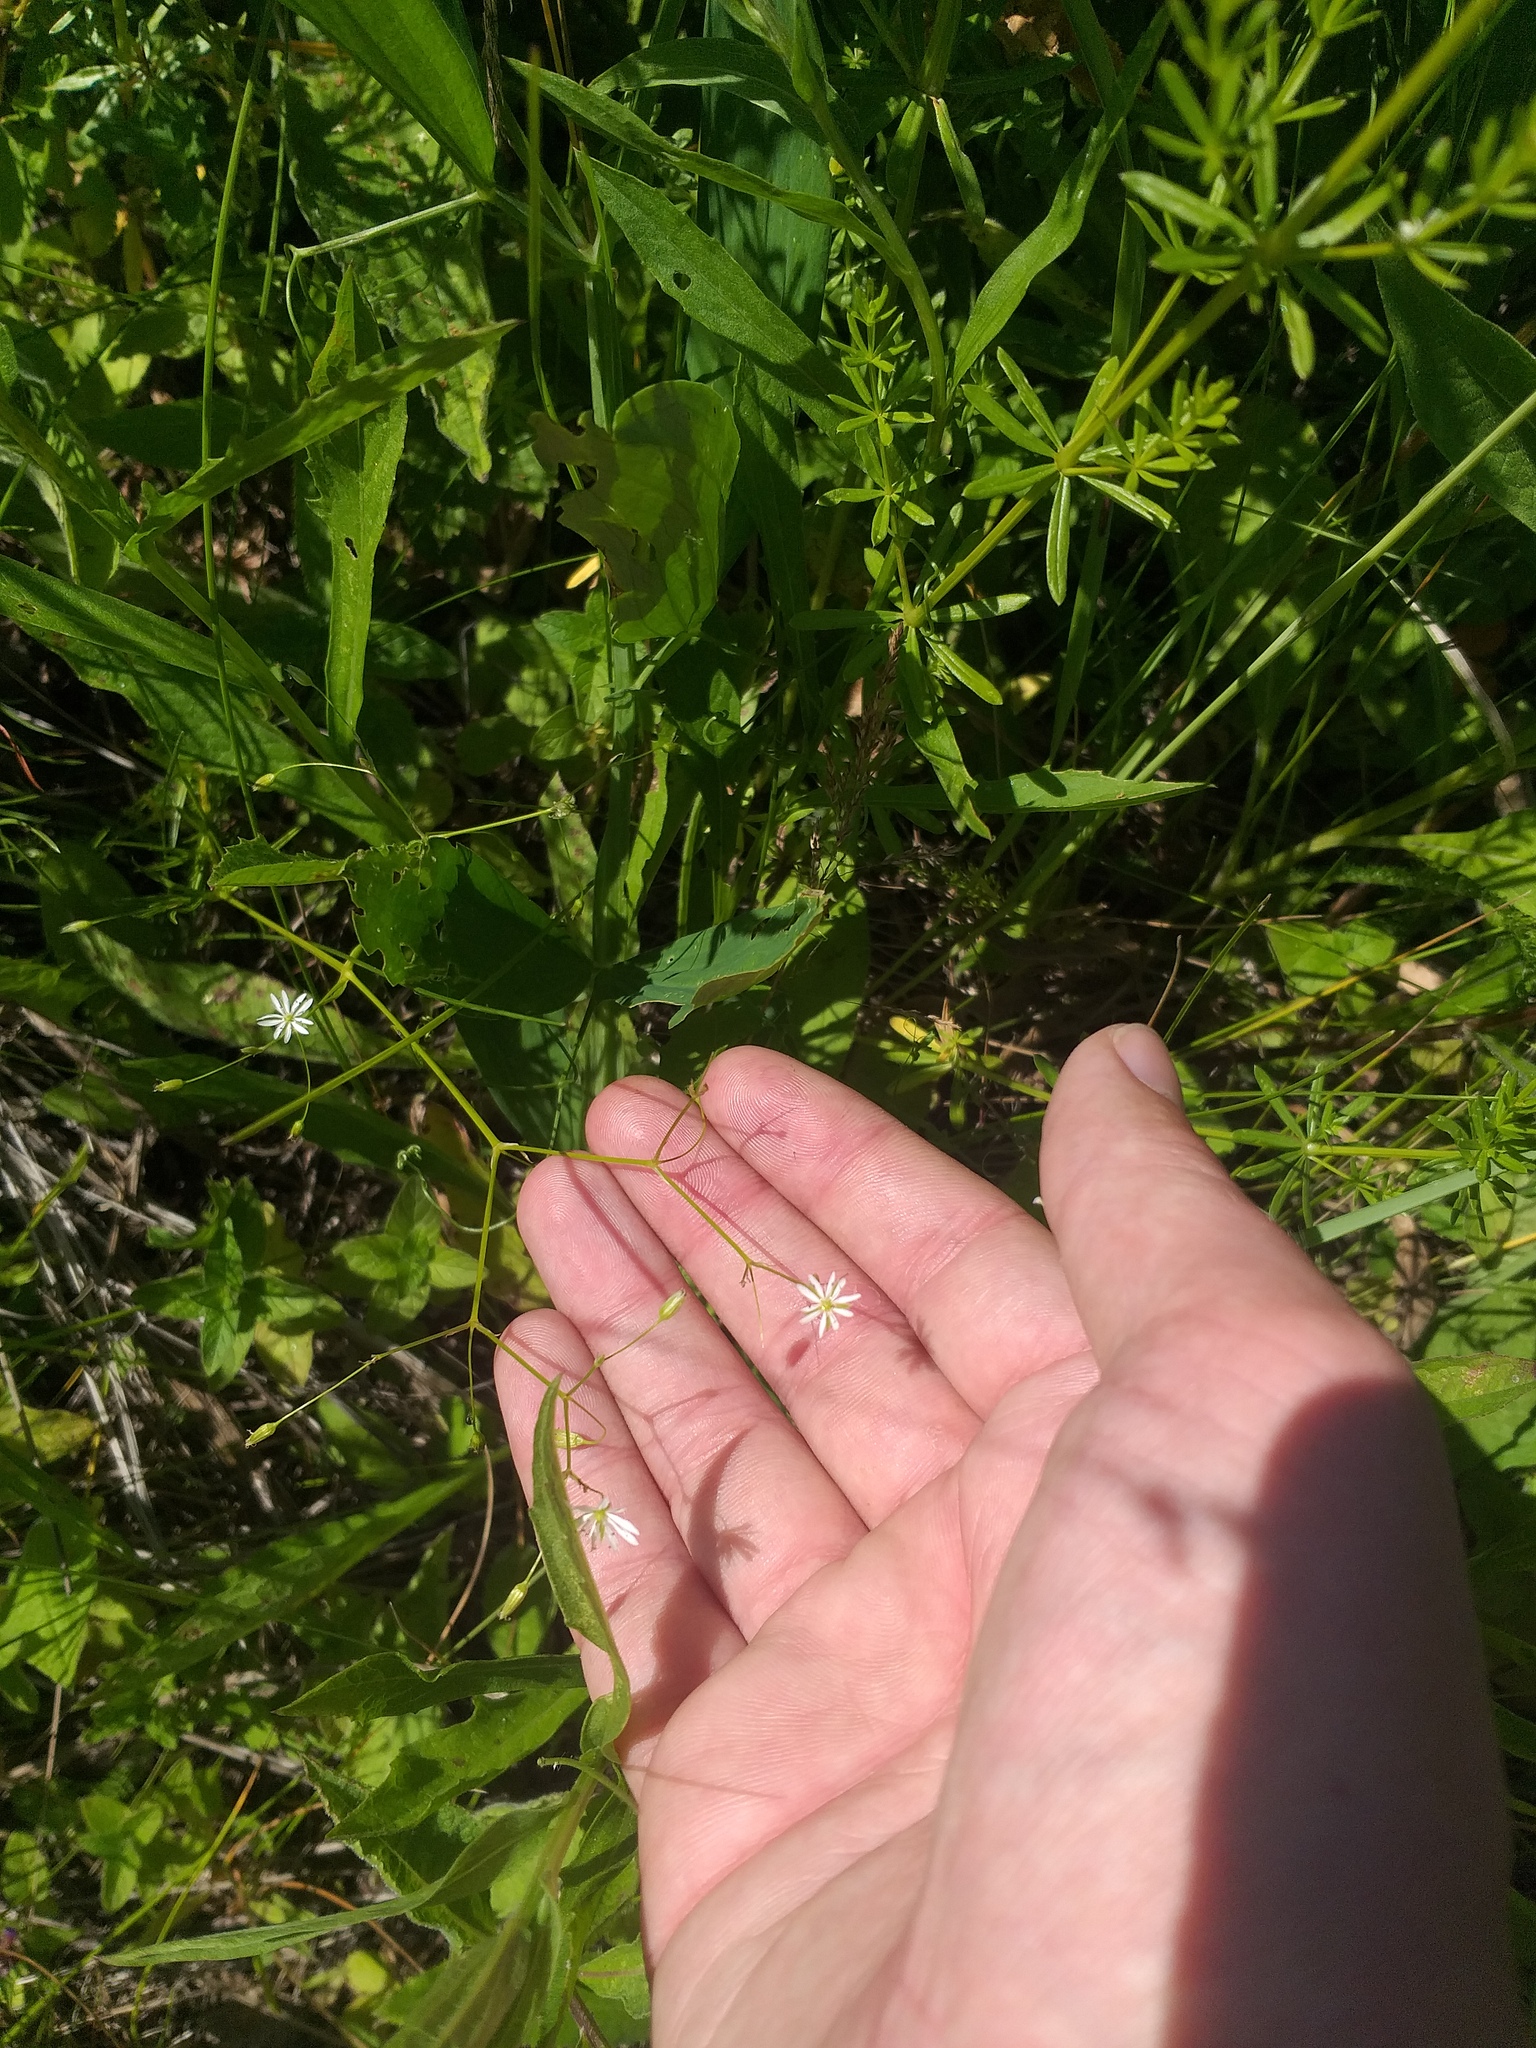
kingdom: Plantae
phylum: Tracheophyta
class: Magnoliopsida
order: Caryophyllales
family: Caryophyllaceae
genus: Stellaria
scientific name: Stellaria graminea
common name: Grass-like starwort
